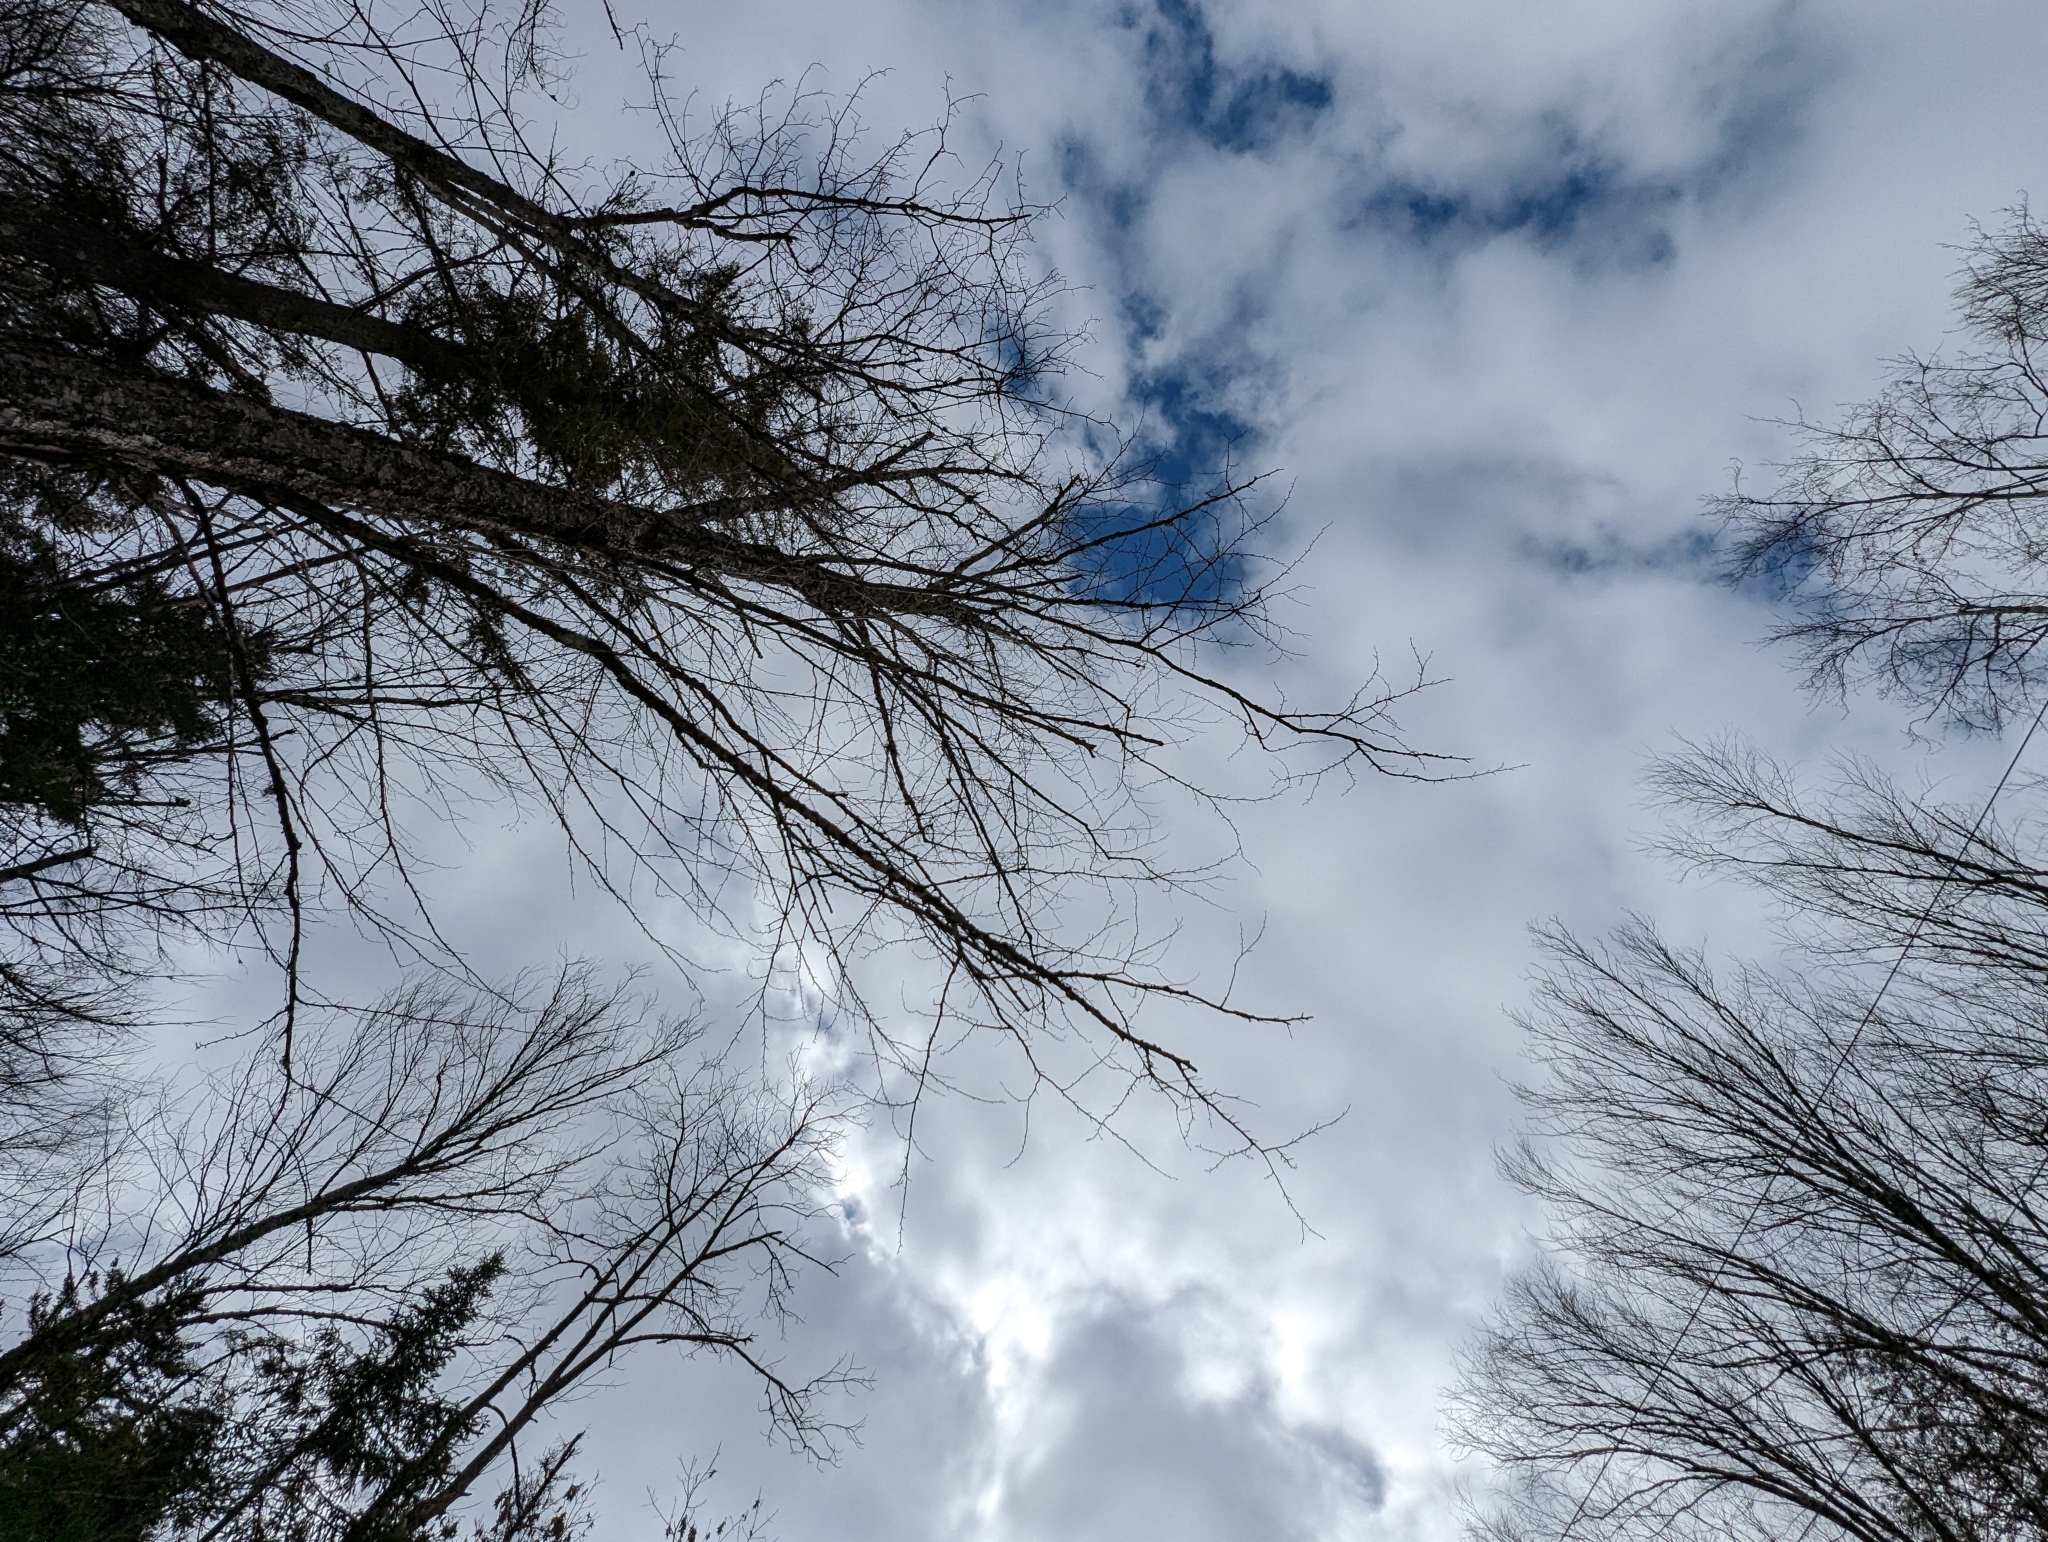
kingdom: Plantae
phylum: Tracheophyta
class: Magnoliopsida
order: Fagales
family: Betulaceae
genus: Betula
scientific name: Betula alleghaniensis
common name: Yellow birch
